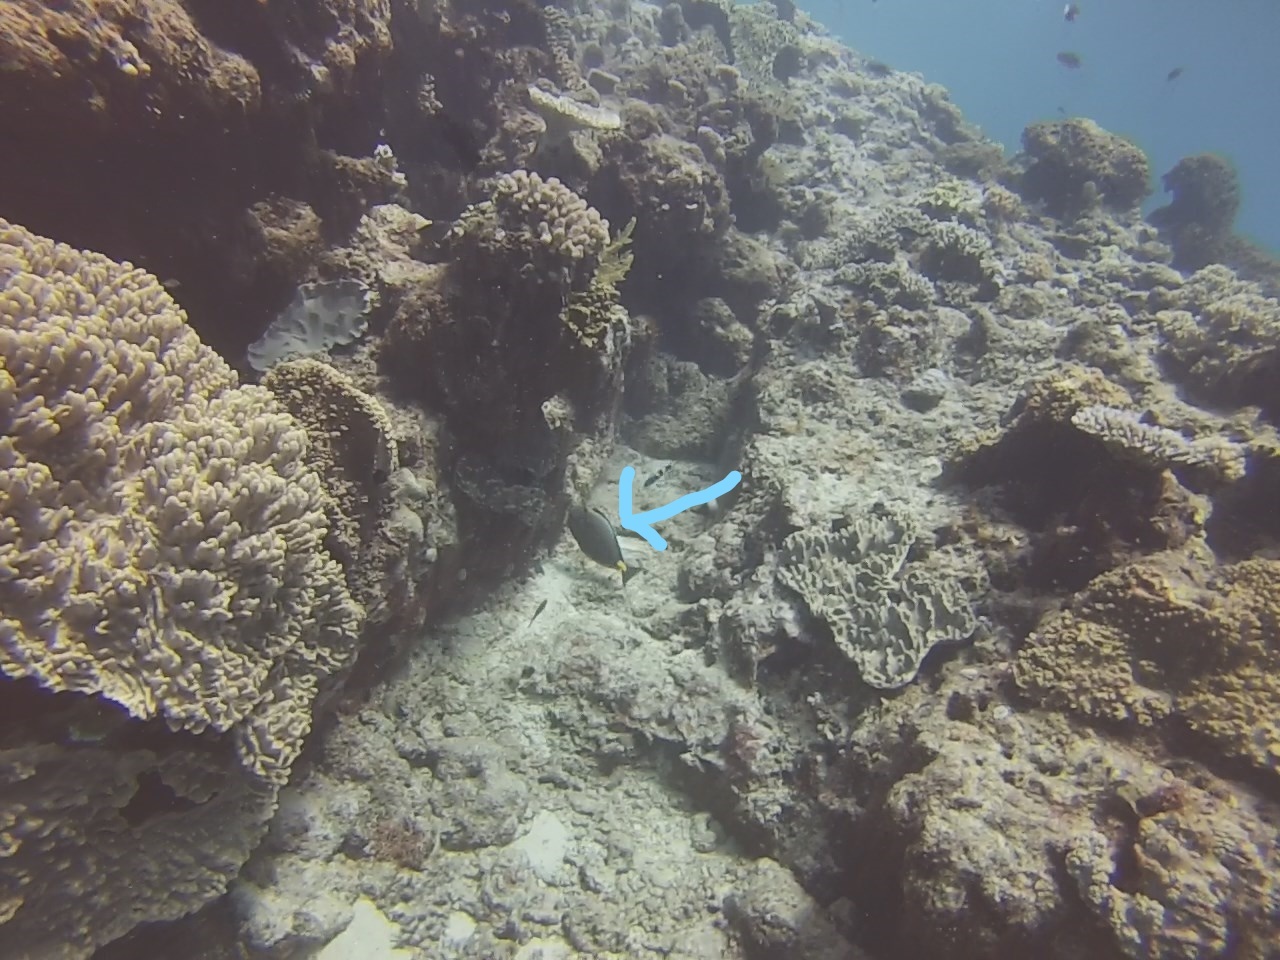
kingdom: Animalia
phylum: Chordata
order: Perciformes
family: Acanthuridae
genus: Naso
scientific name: Naso lituratus
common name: Orangespine unicornfish
